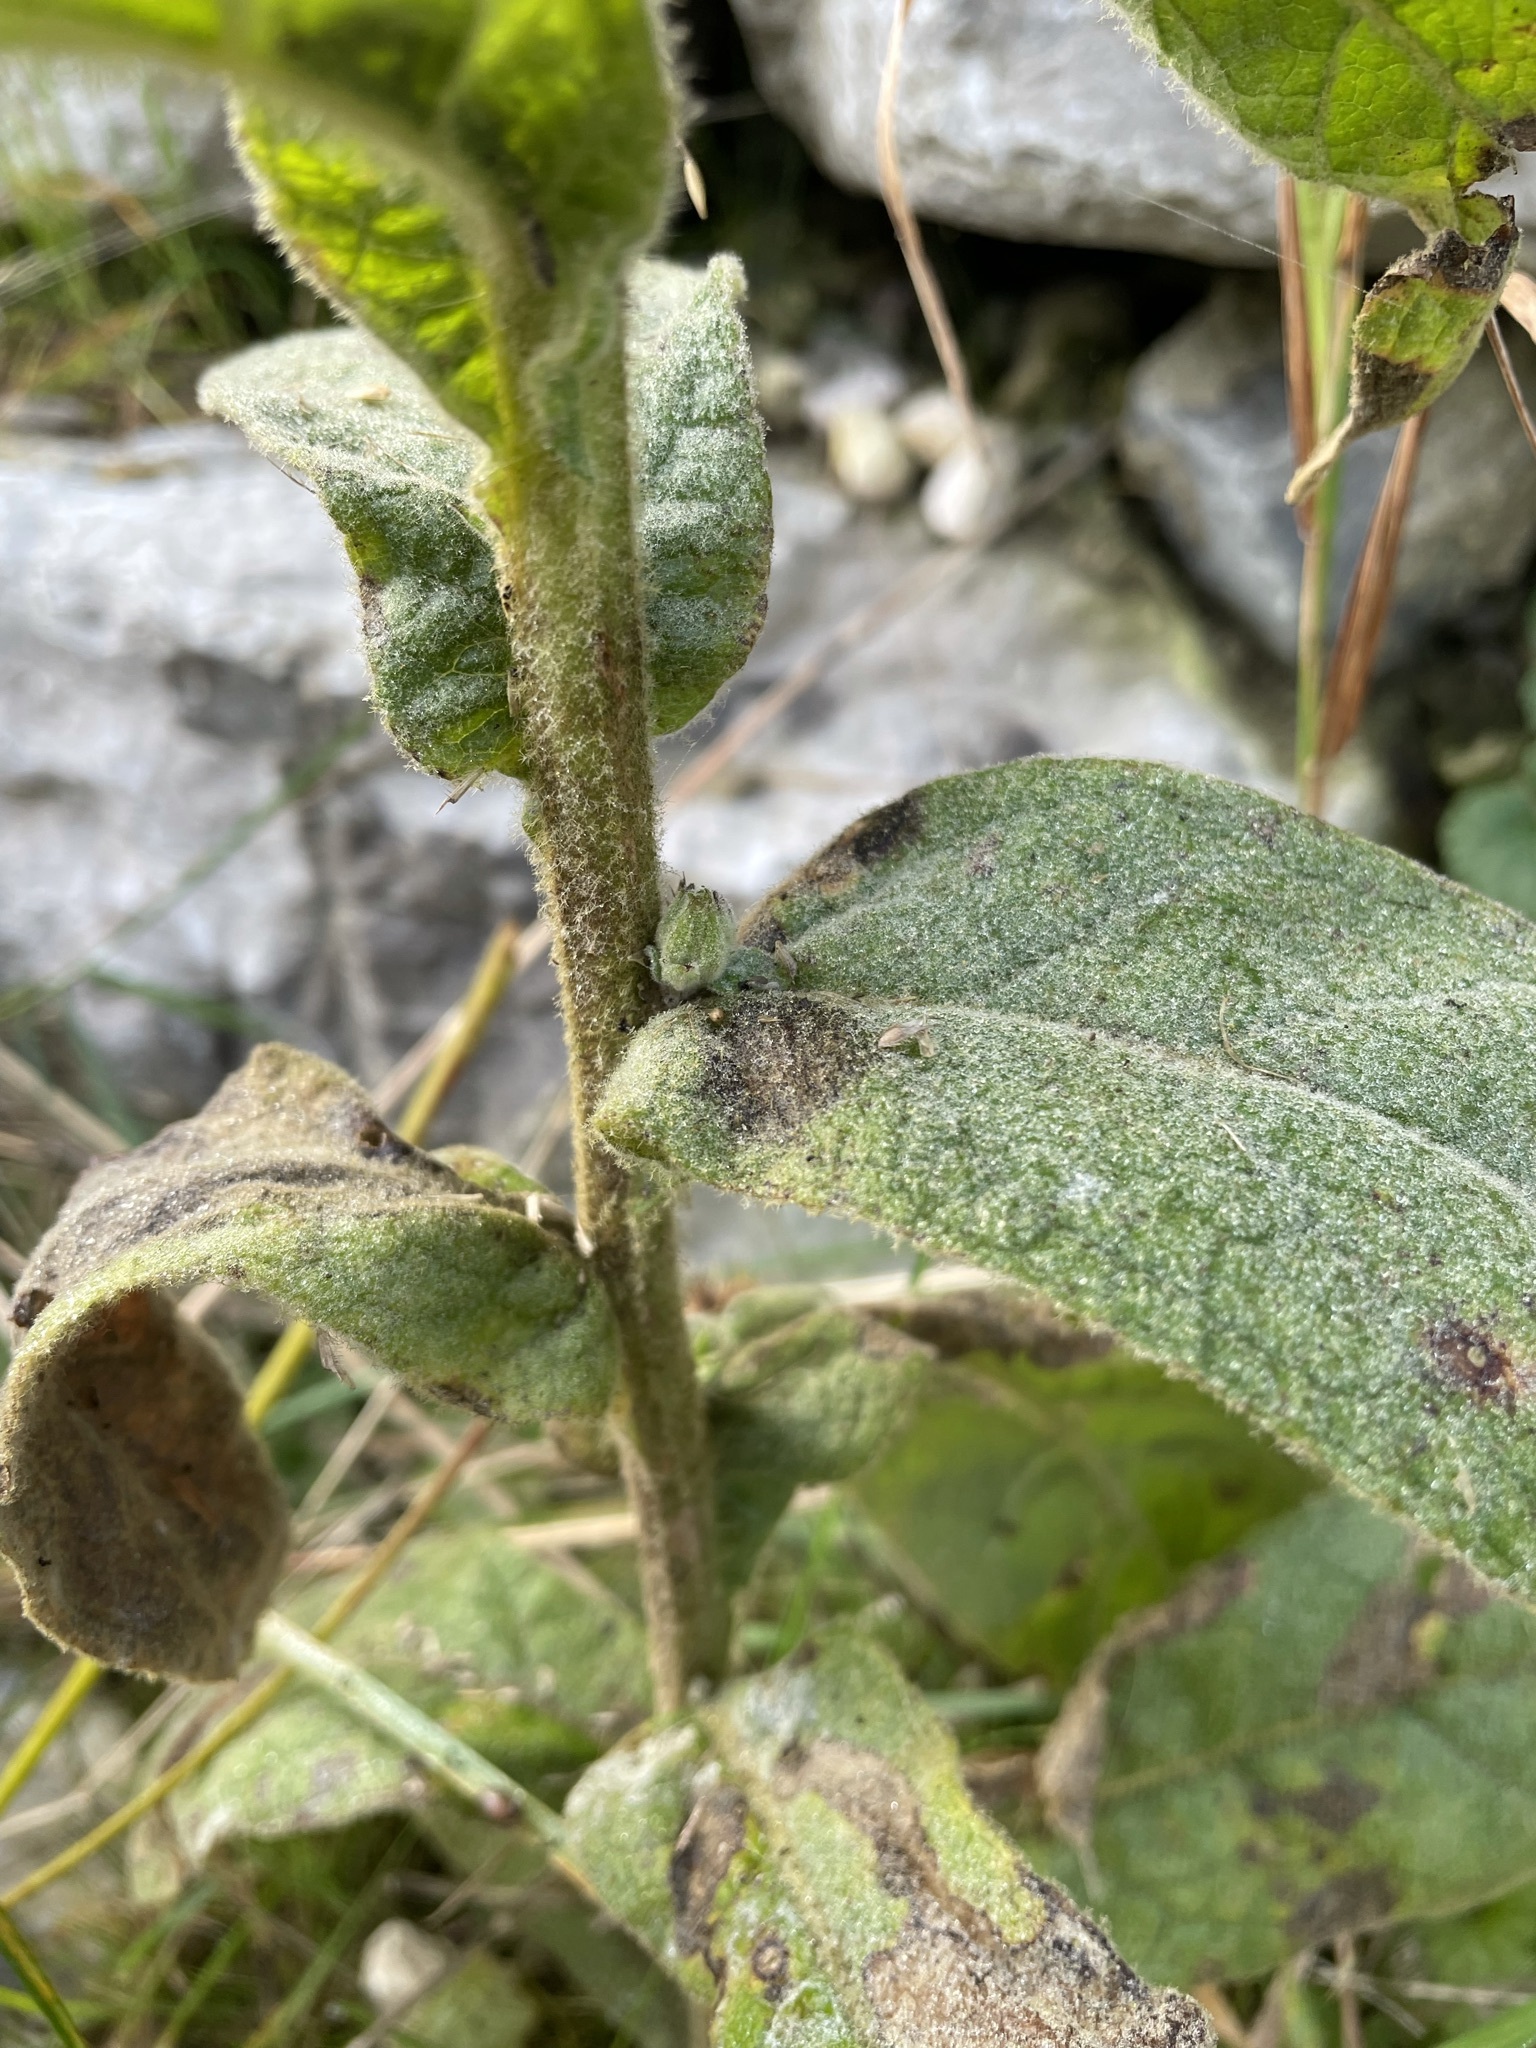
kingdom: Plantae
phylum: Tracheophyta
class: Magnoliopsida
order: Lamiales
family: Scrophulariaceae
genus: Verbascum
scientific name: Verbascum phlomoides
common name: Orange mullein
